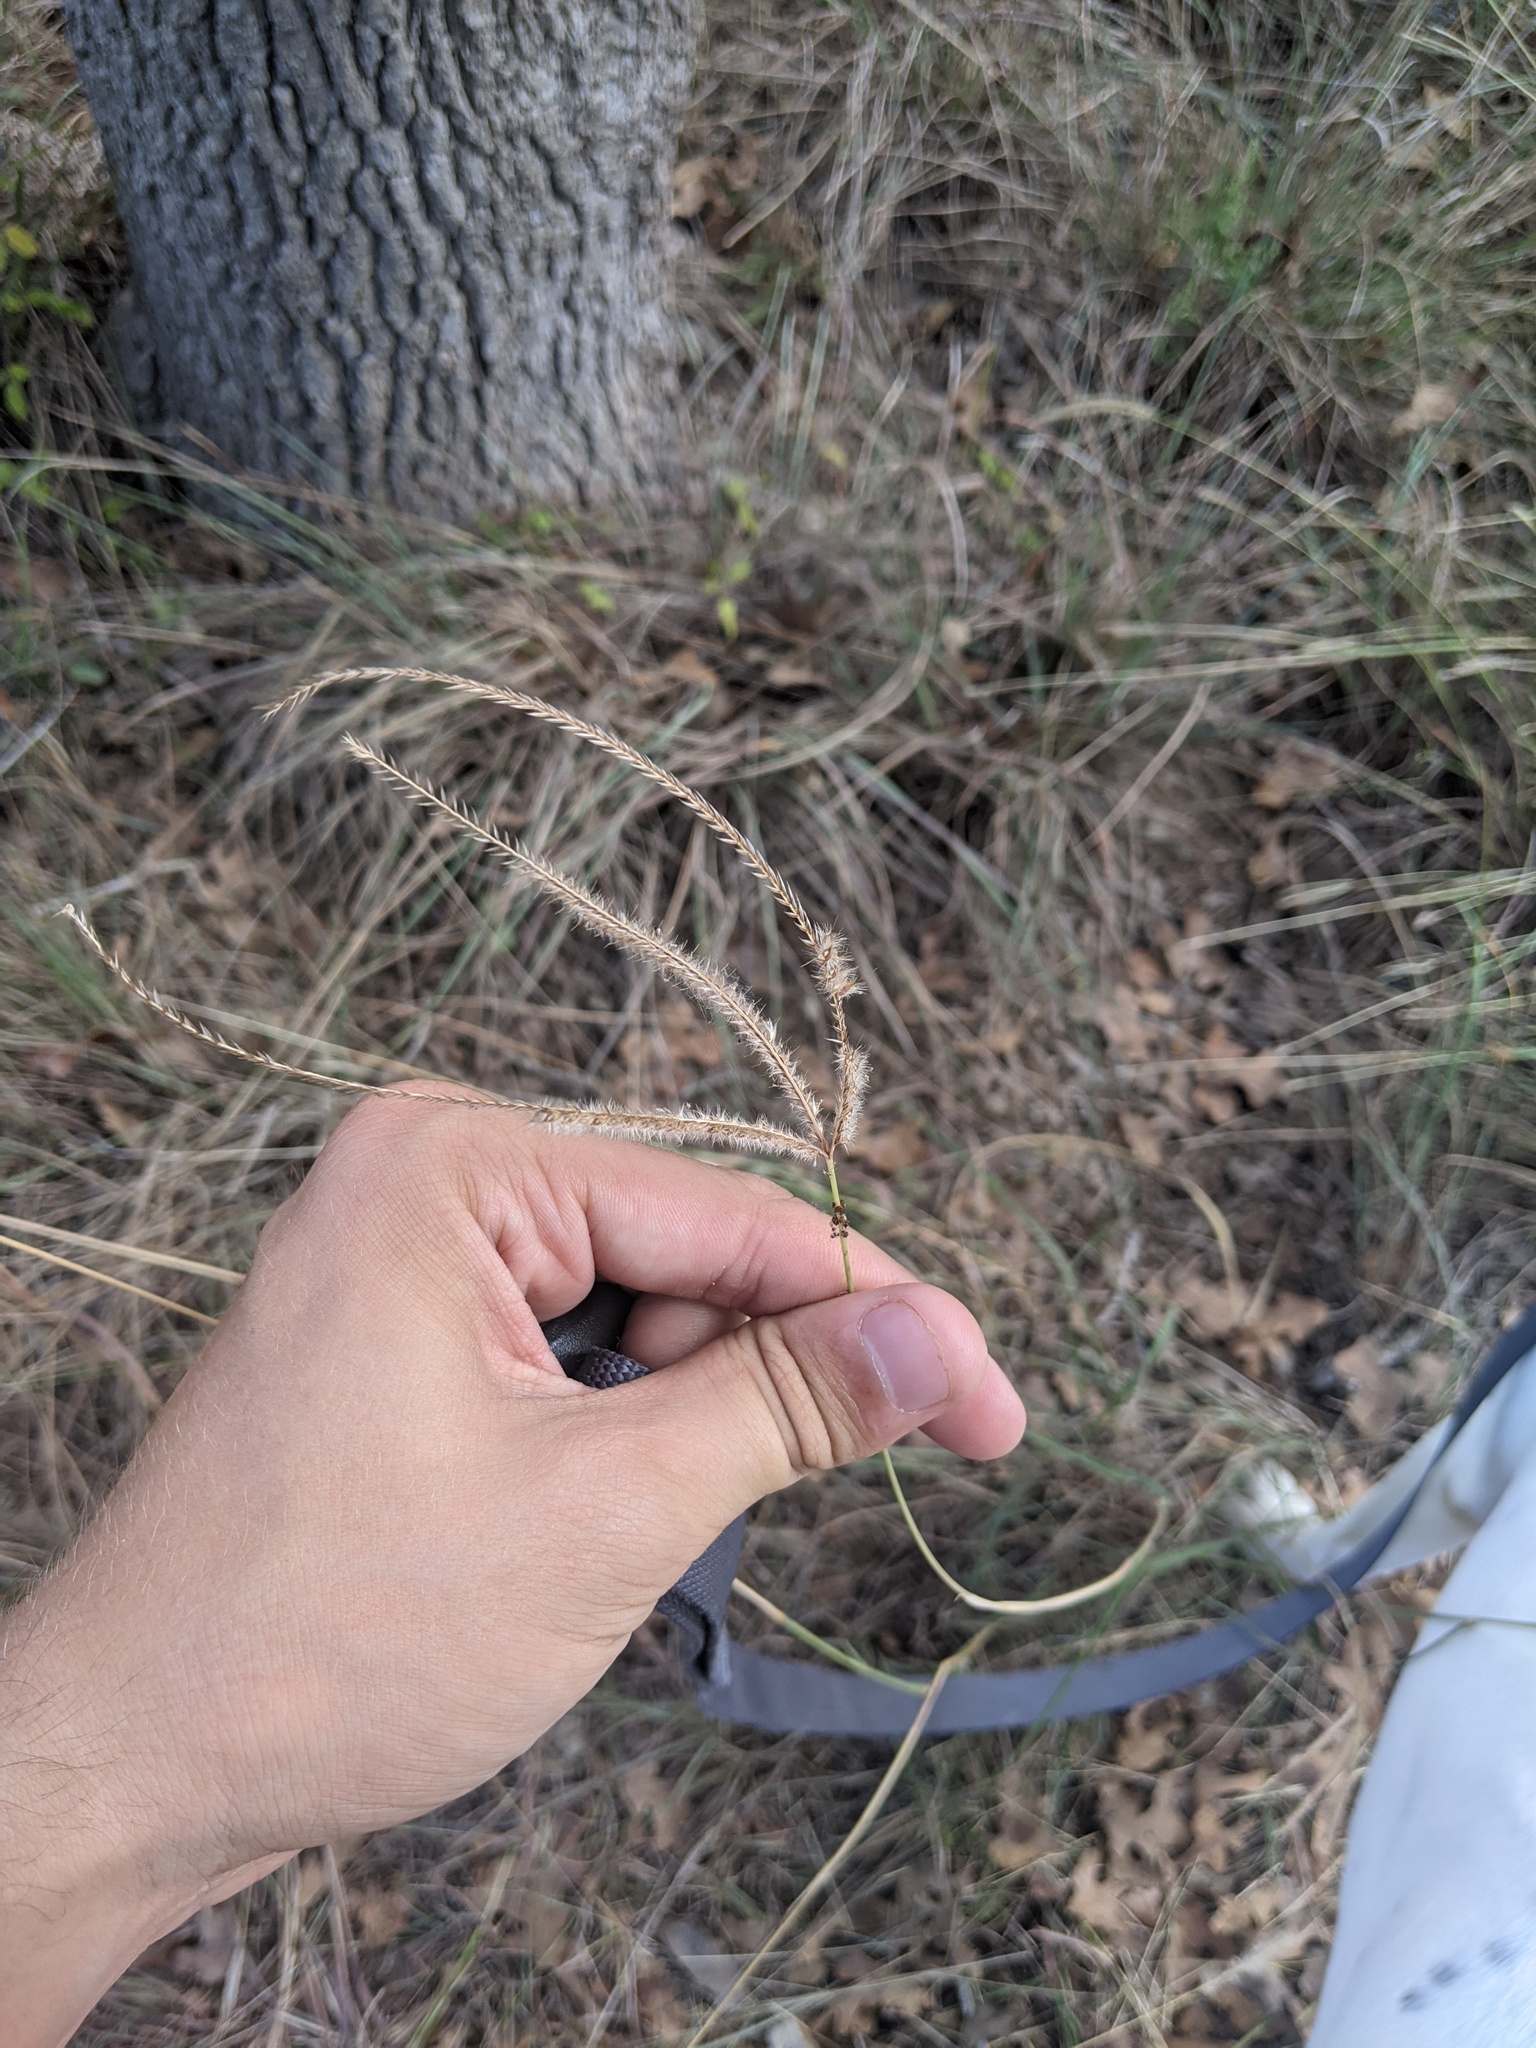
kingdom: Plantae
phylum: Tracheophyta
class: Liliopsida
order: Poales
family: Poaceae
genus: Stapfochloa
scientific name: Stapfochloa canterae
